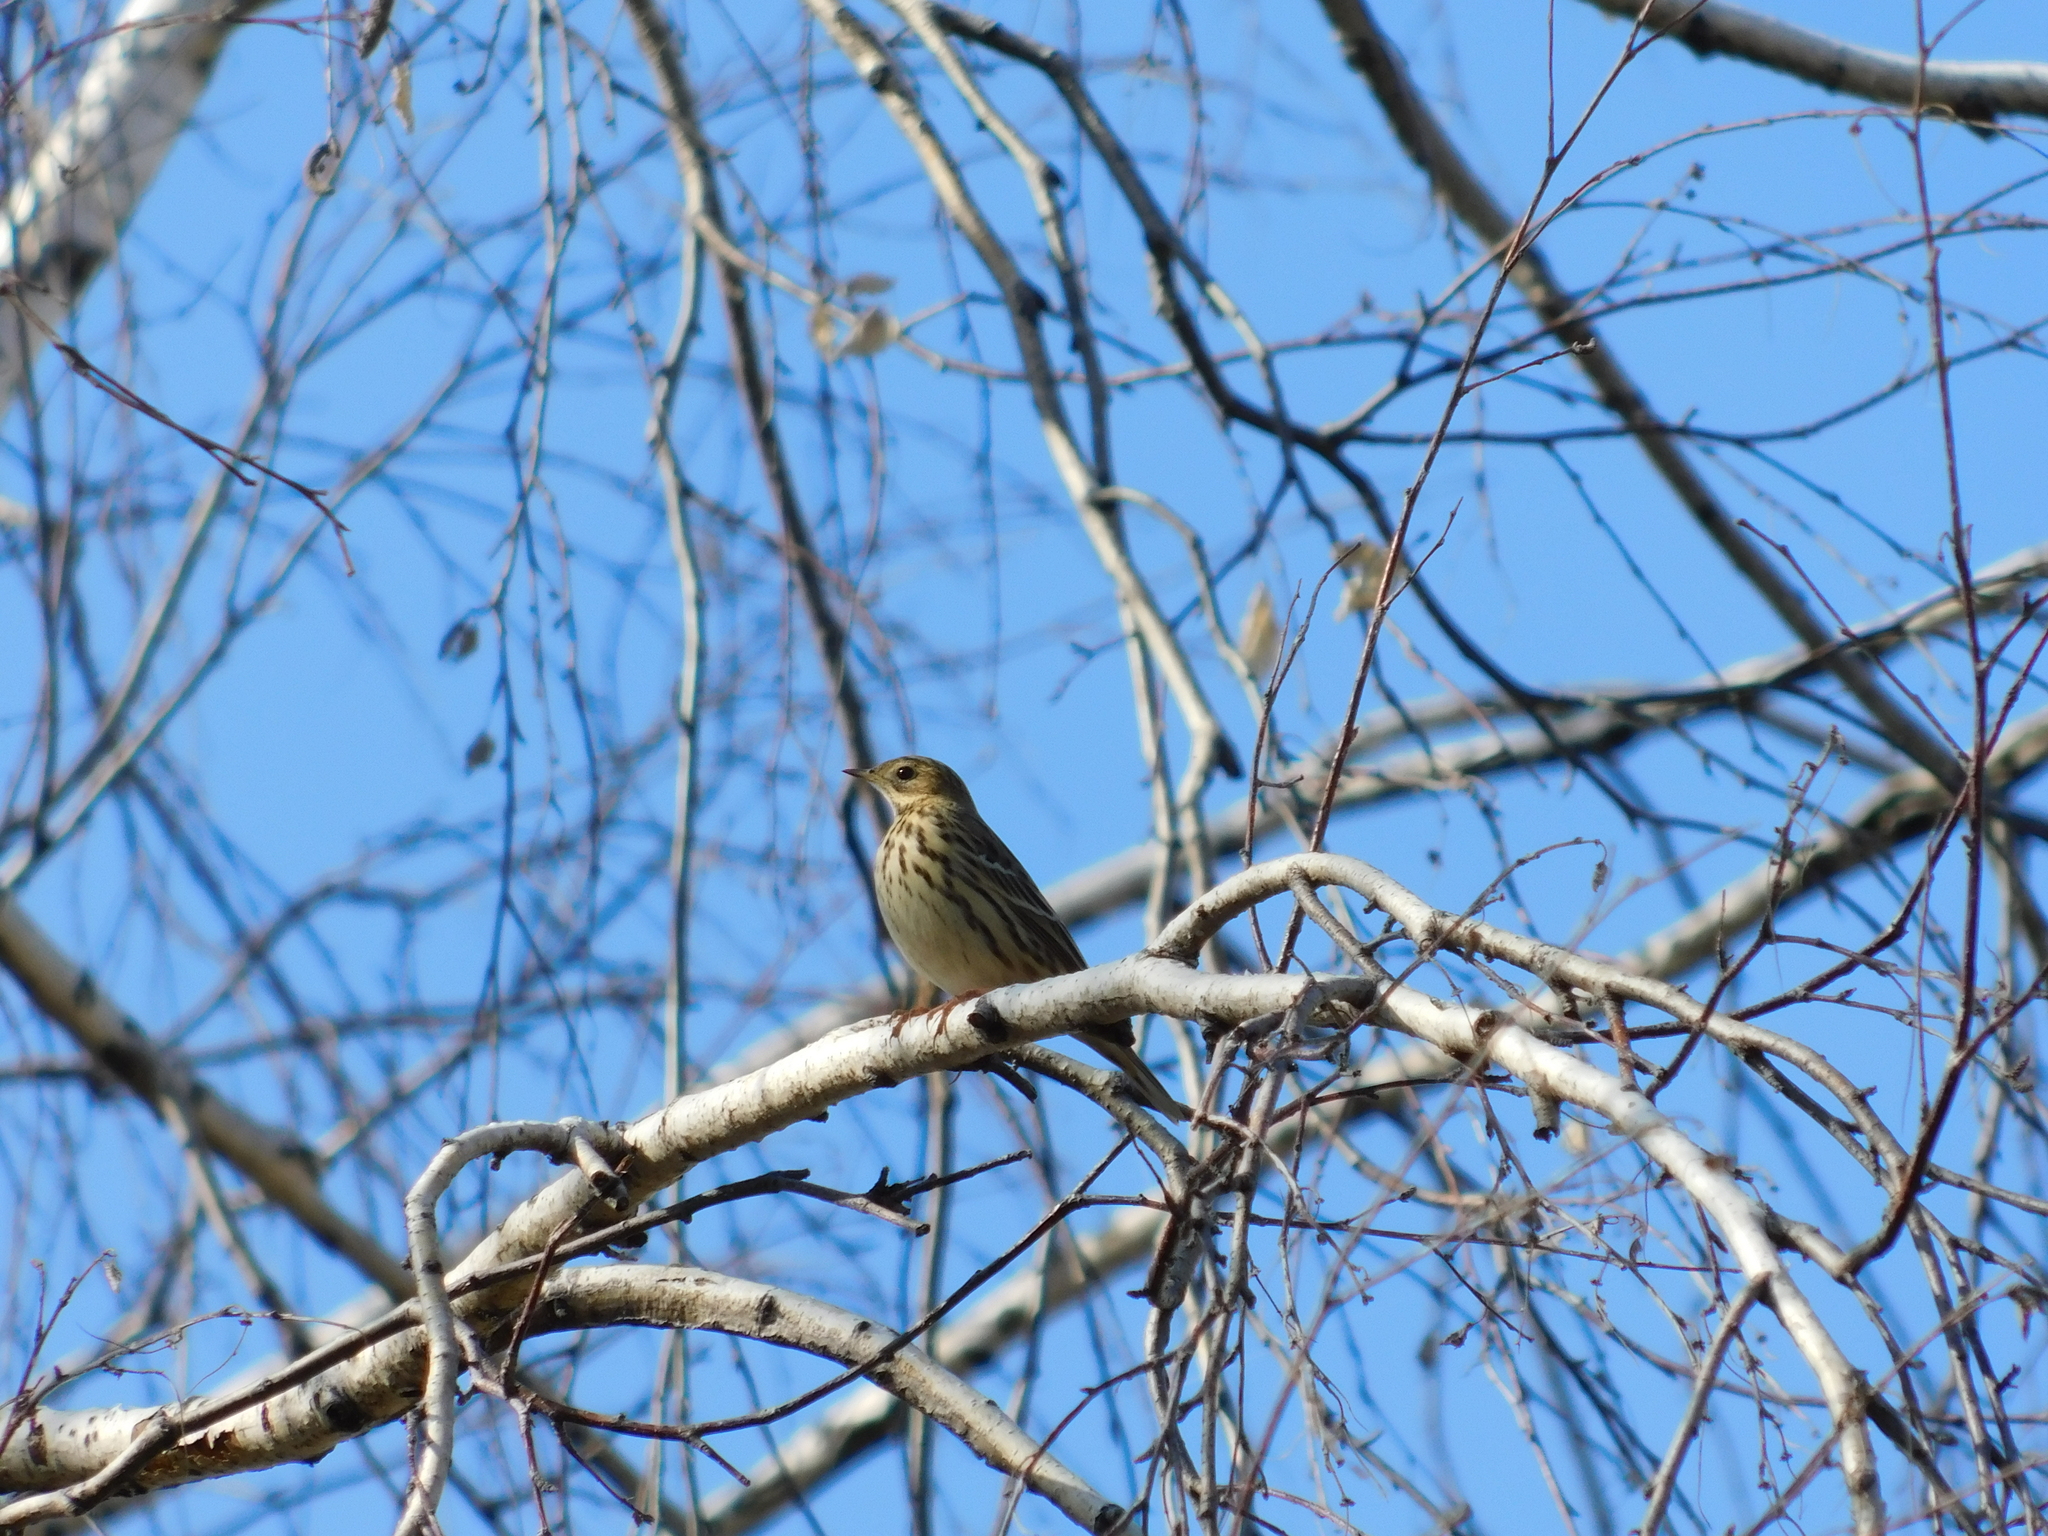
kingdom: Animalia
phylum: Chordata
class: Aves
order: Passeriformes
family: Motacillidae
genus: Anthus
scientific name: Anthus pratensis
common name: Meadow pipit
